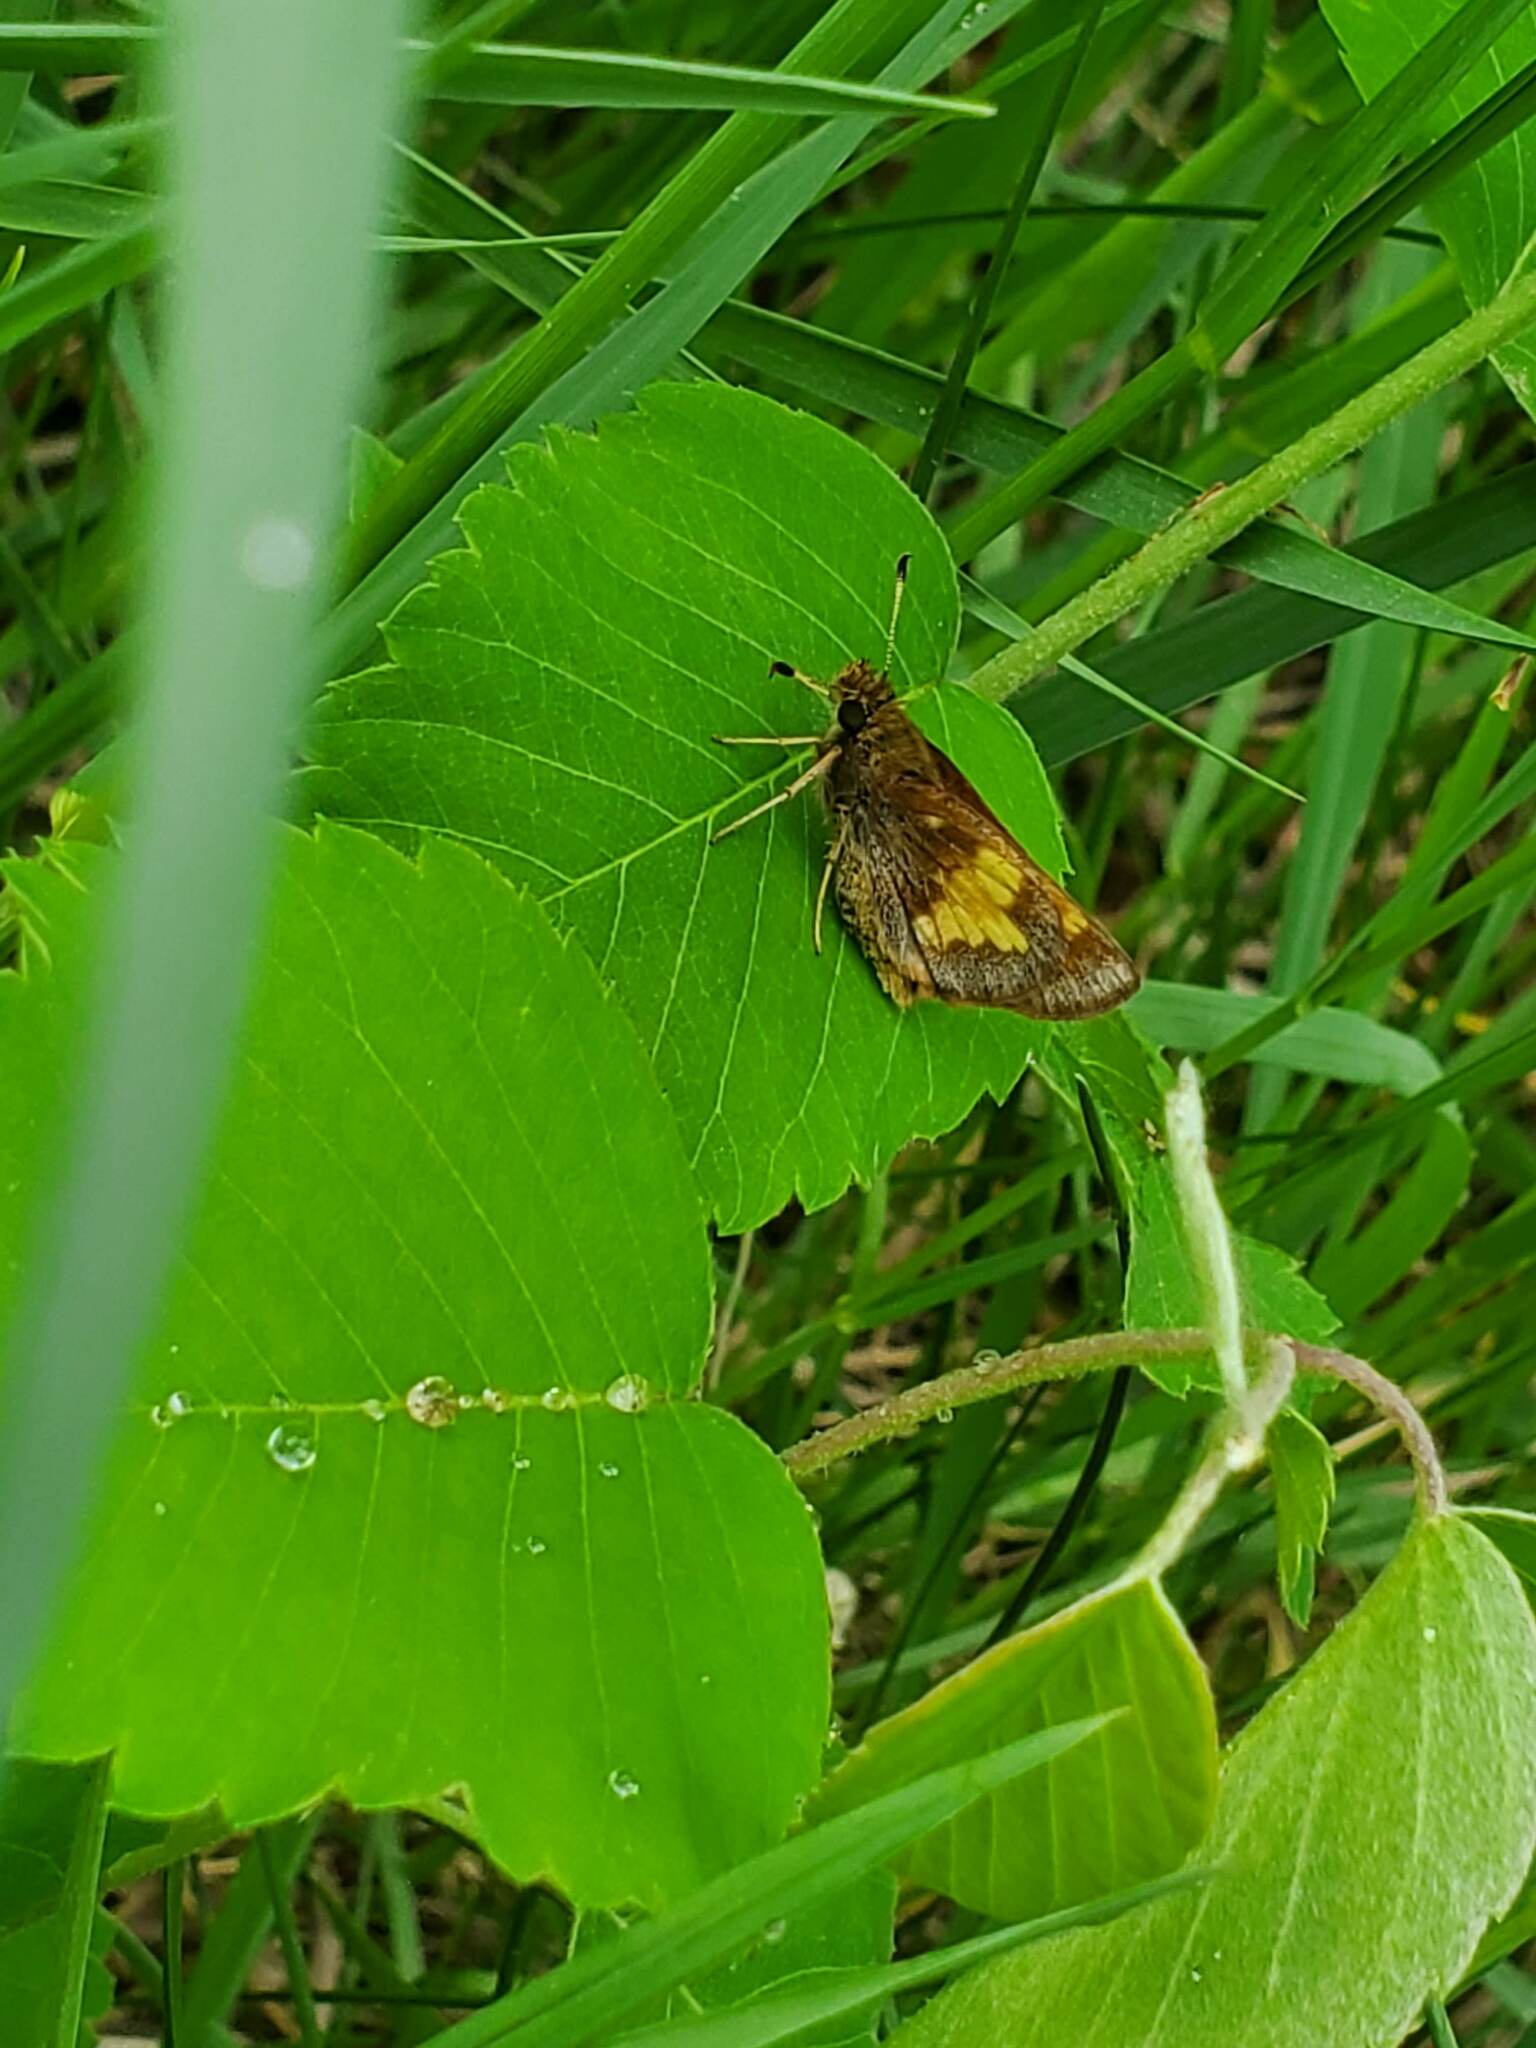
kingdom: Animalia
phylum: Arthropoda
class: Insecta
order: Lepidoptera
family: Hesperiidae
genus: Lon
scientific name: Lon hobomok
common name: Hobomok skipper
